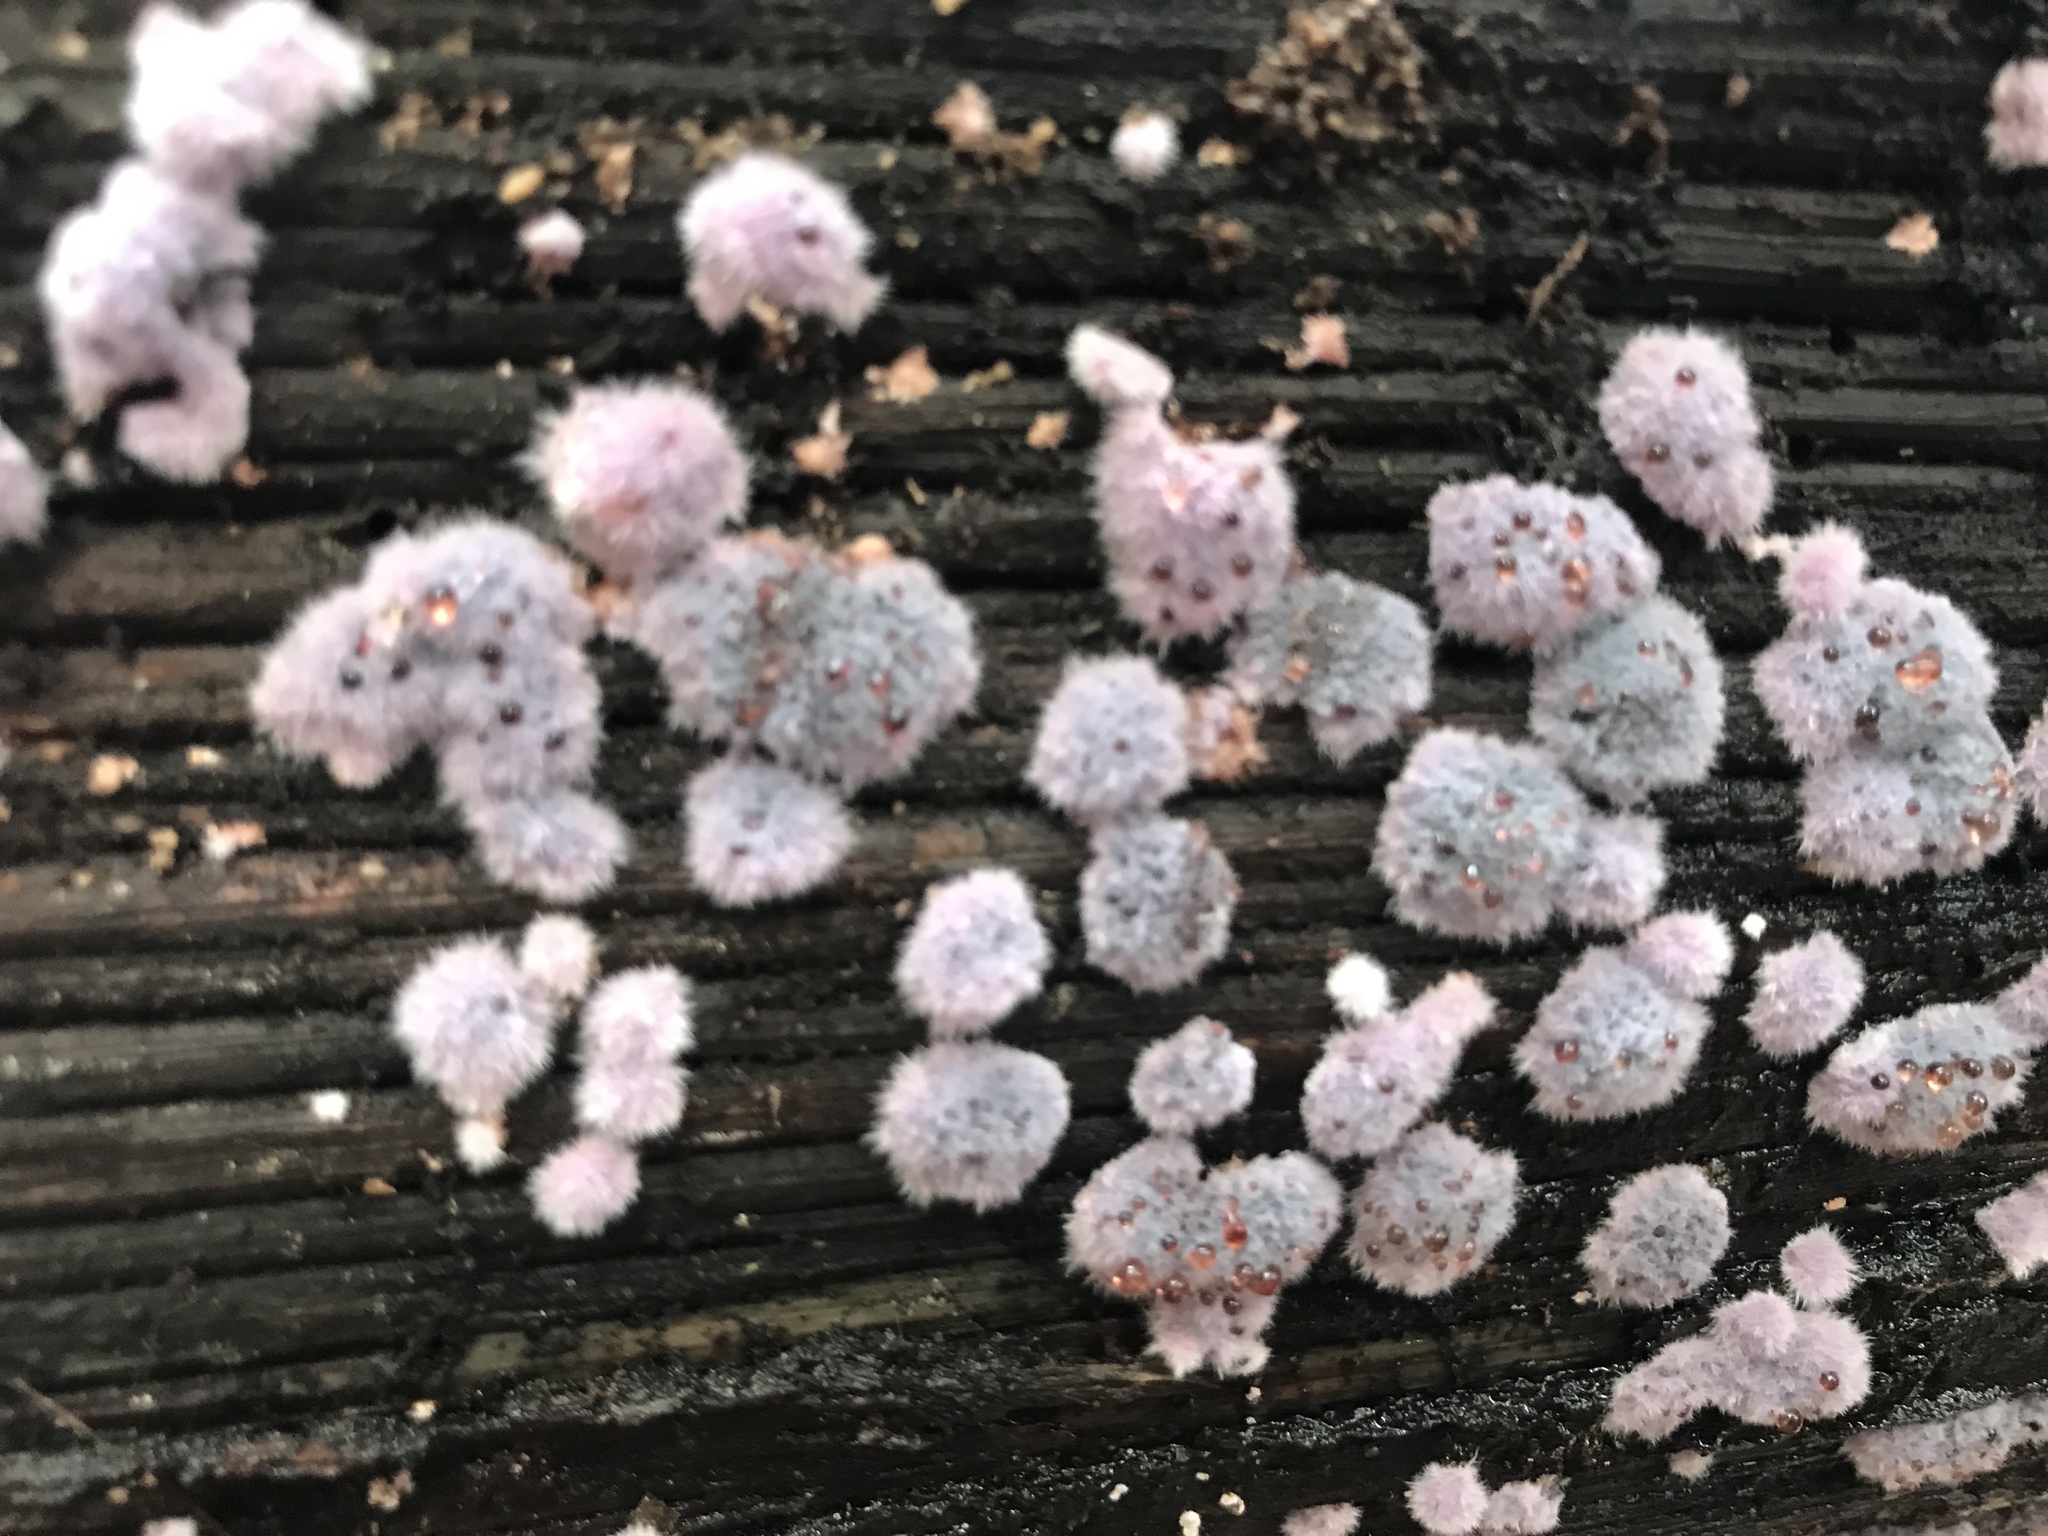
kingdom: Fungi
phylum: Basidiomycota
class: Agaricomycetes
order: Corticiales
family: Punctulariaceae
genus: Punctularia
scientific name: Punctularia atropurpurascens
